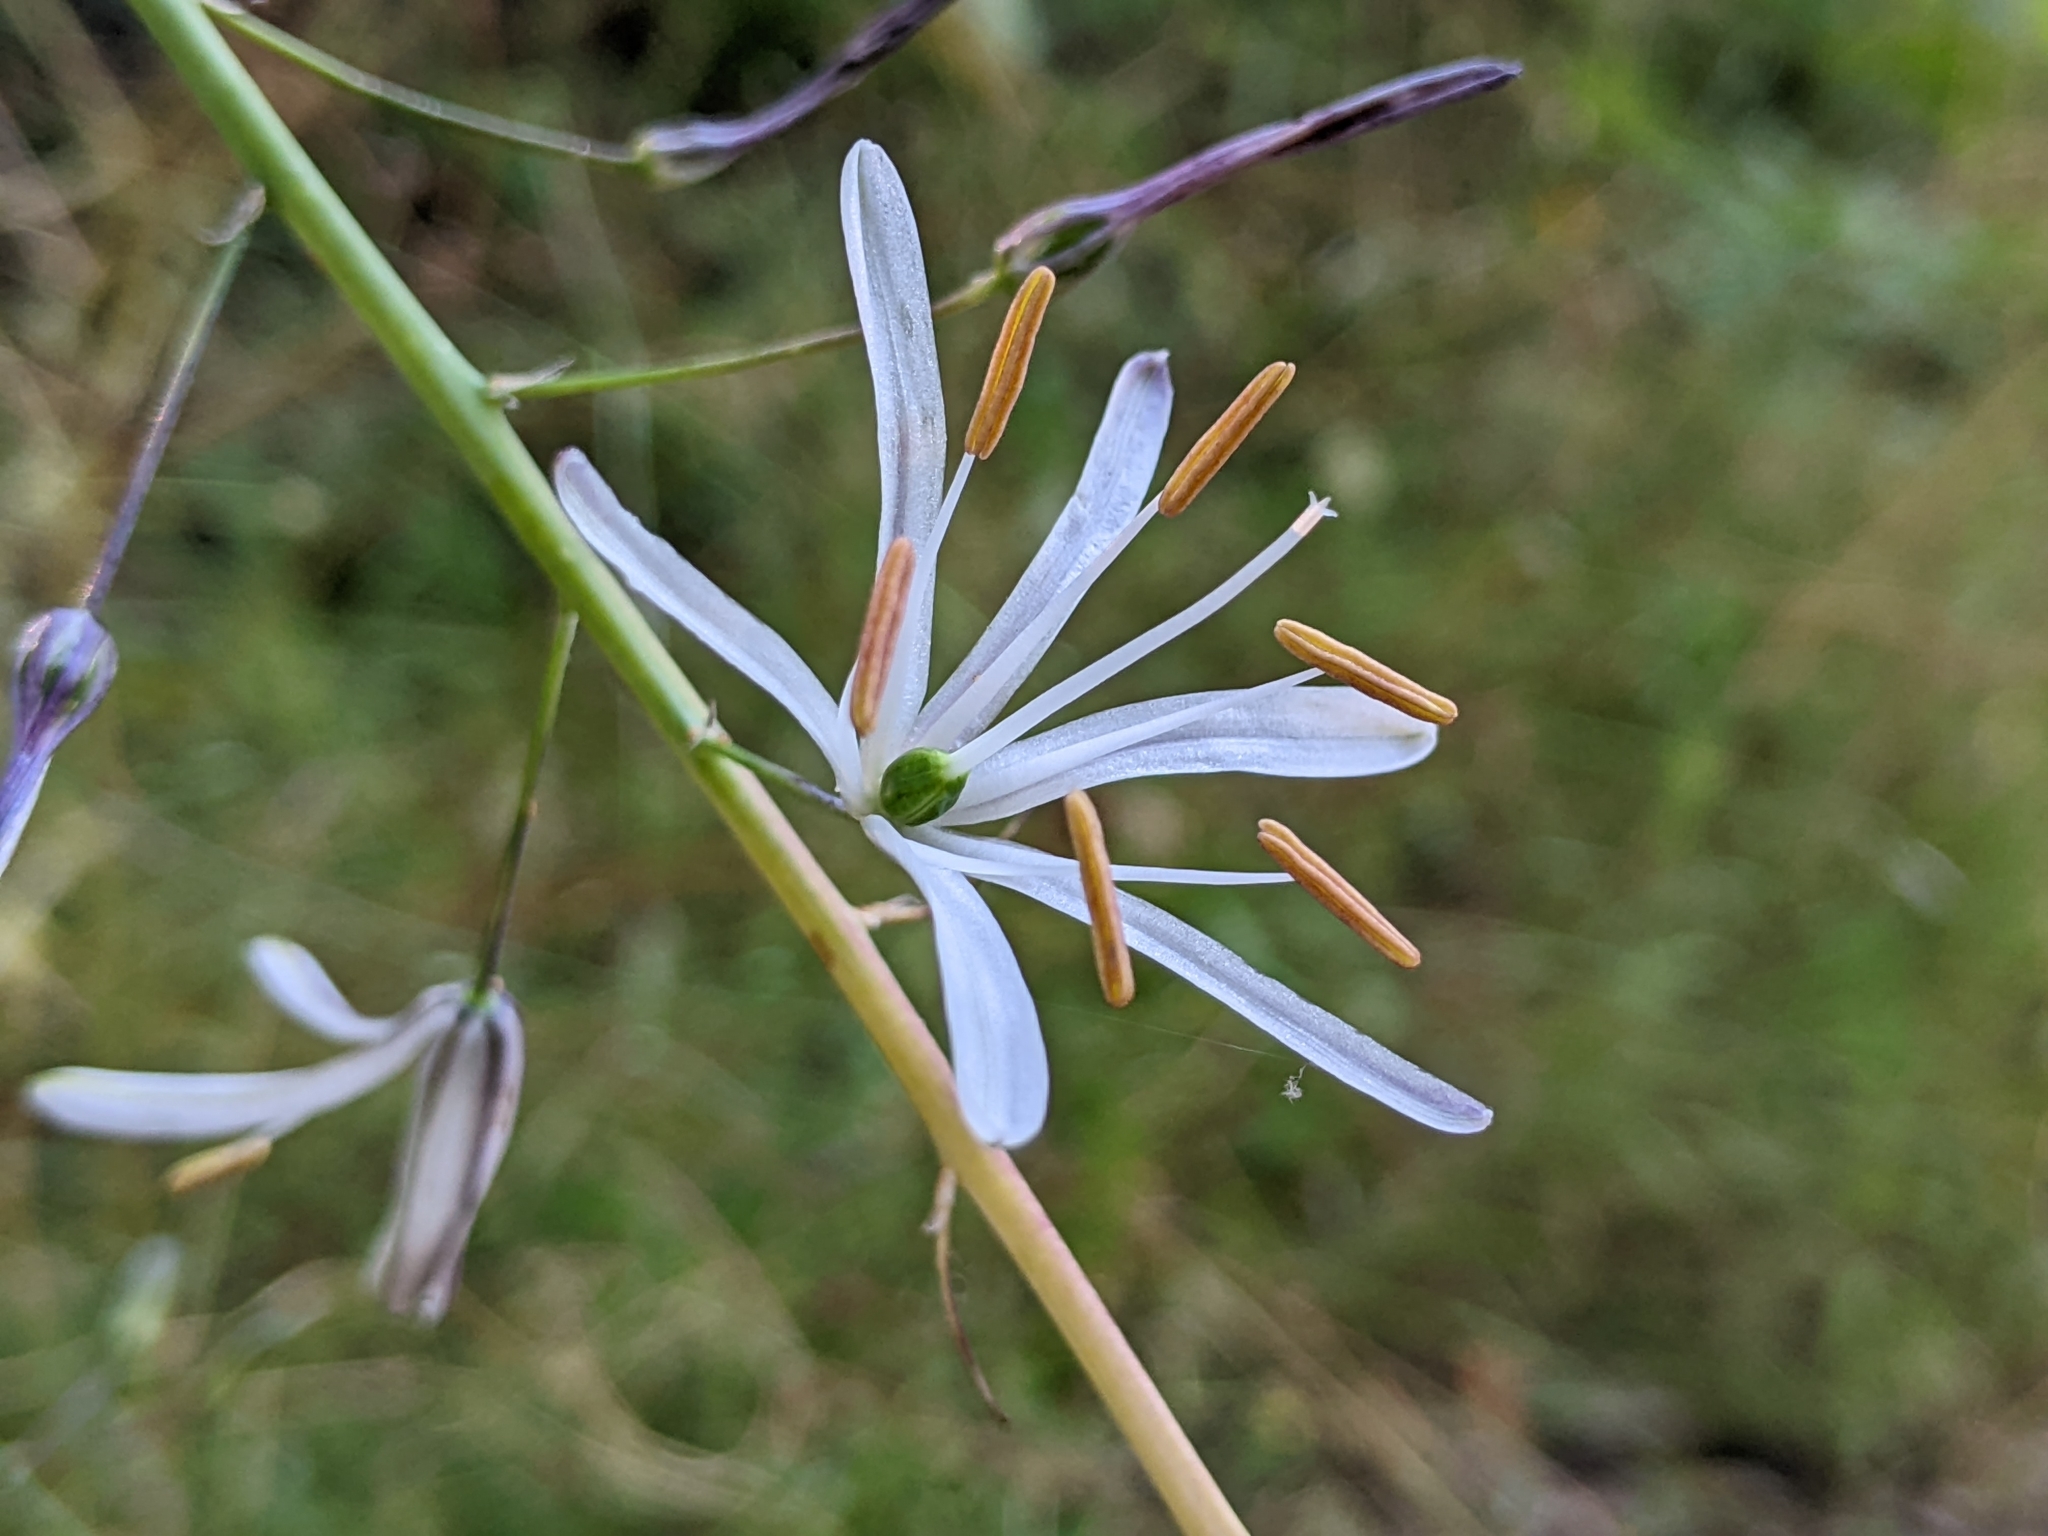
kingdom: Plantae
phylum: Tracheophyta
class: Liliopsida
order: Asparagales
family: Asparagaceae
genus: Chlorogalum
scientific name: Chlorogalum pomeridianum
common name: Amole
